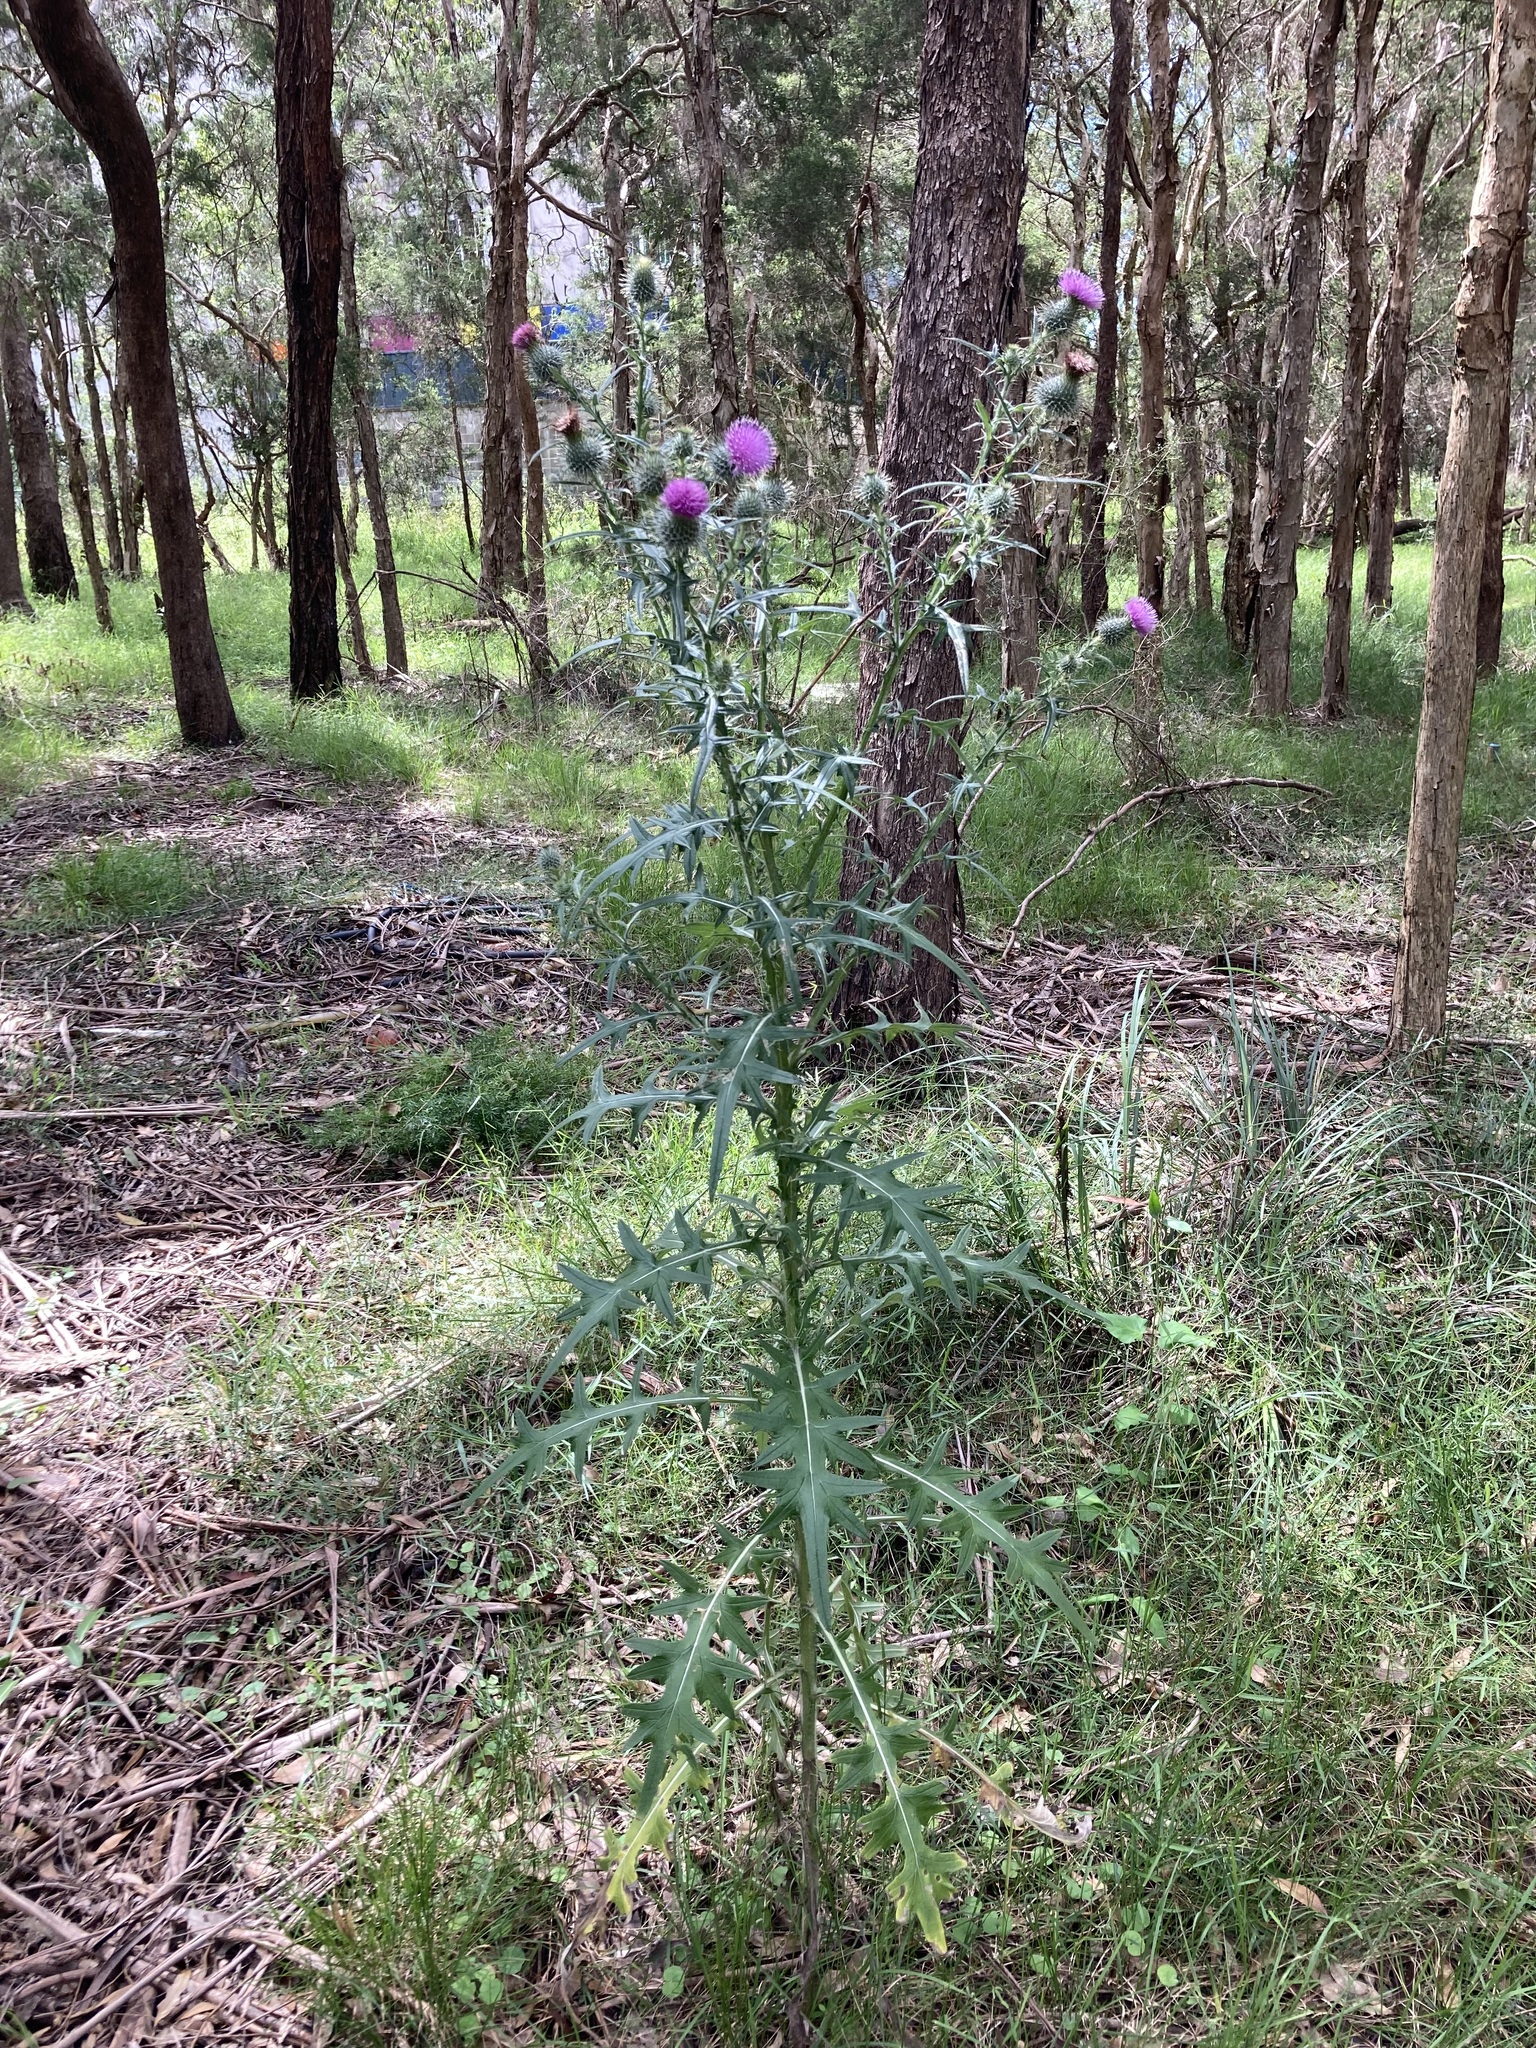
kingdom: Plantae
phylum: Tracheophyta
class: Magnoliopsida
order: Asterales
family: Asteraceae
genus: Cirsium
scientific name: Cirsium vulgare
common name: Bull thistle
